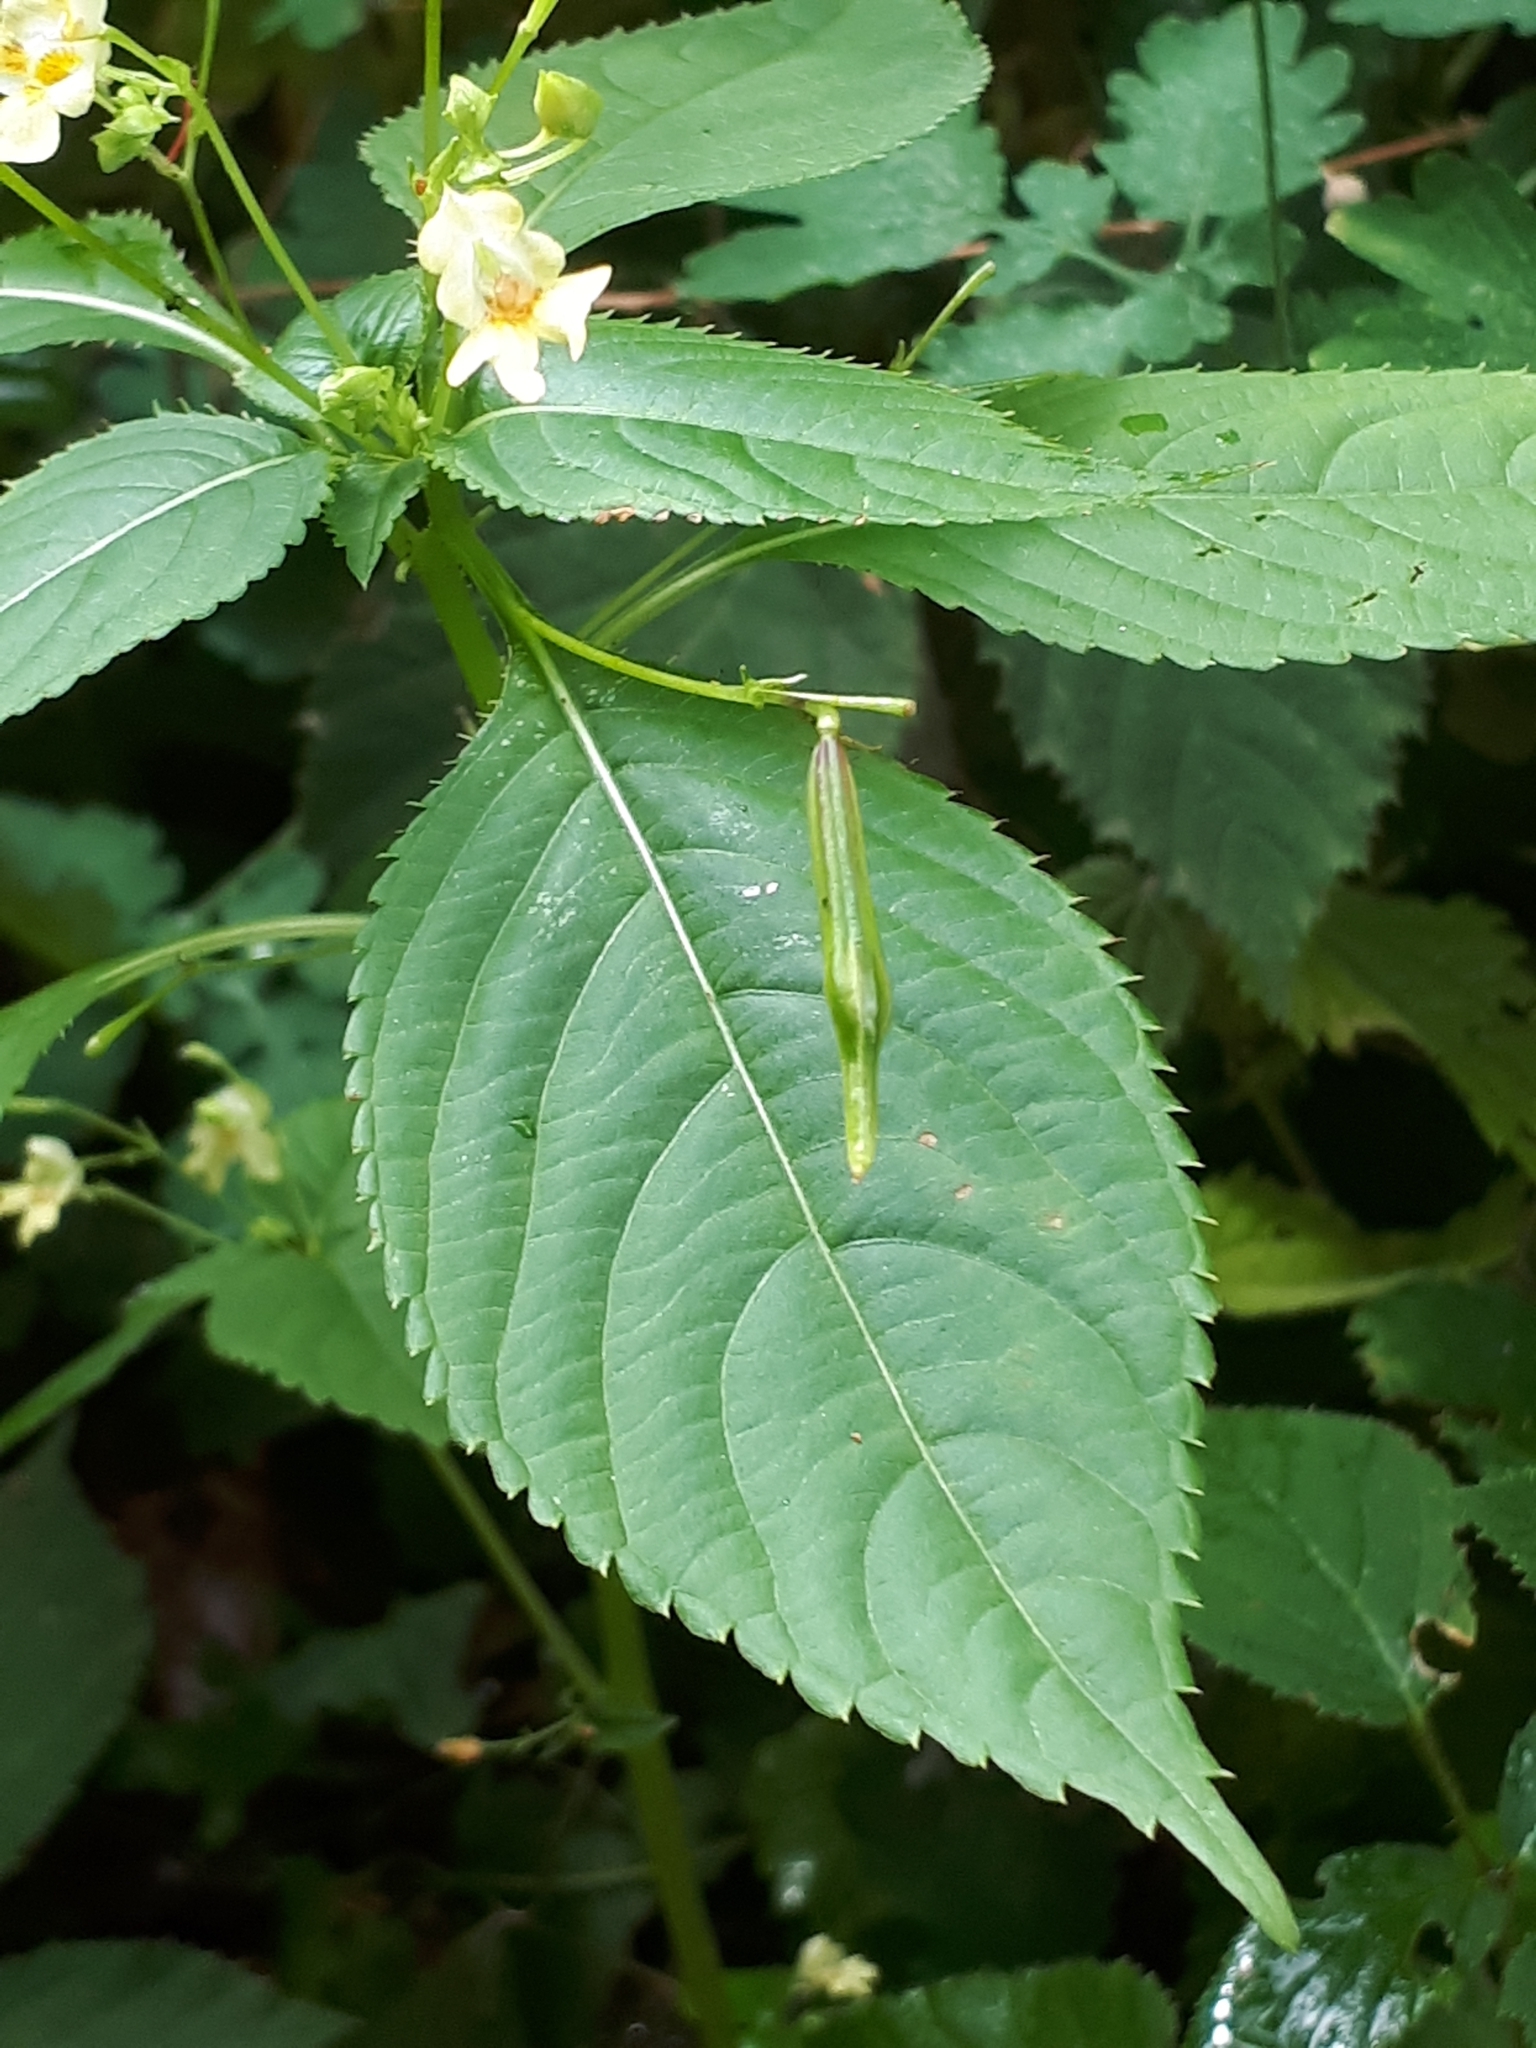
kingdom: Plantae
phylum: Tracheophyta
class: Magnoliopsida
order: Ericales
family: Balsaminaceae
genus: Impatiens
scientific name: Impatiens parviflora
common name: Small balsam
